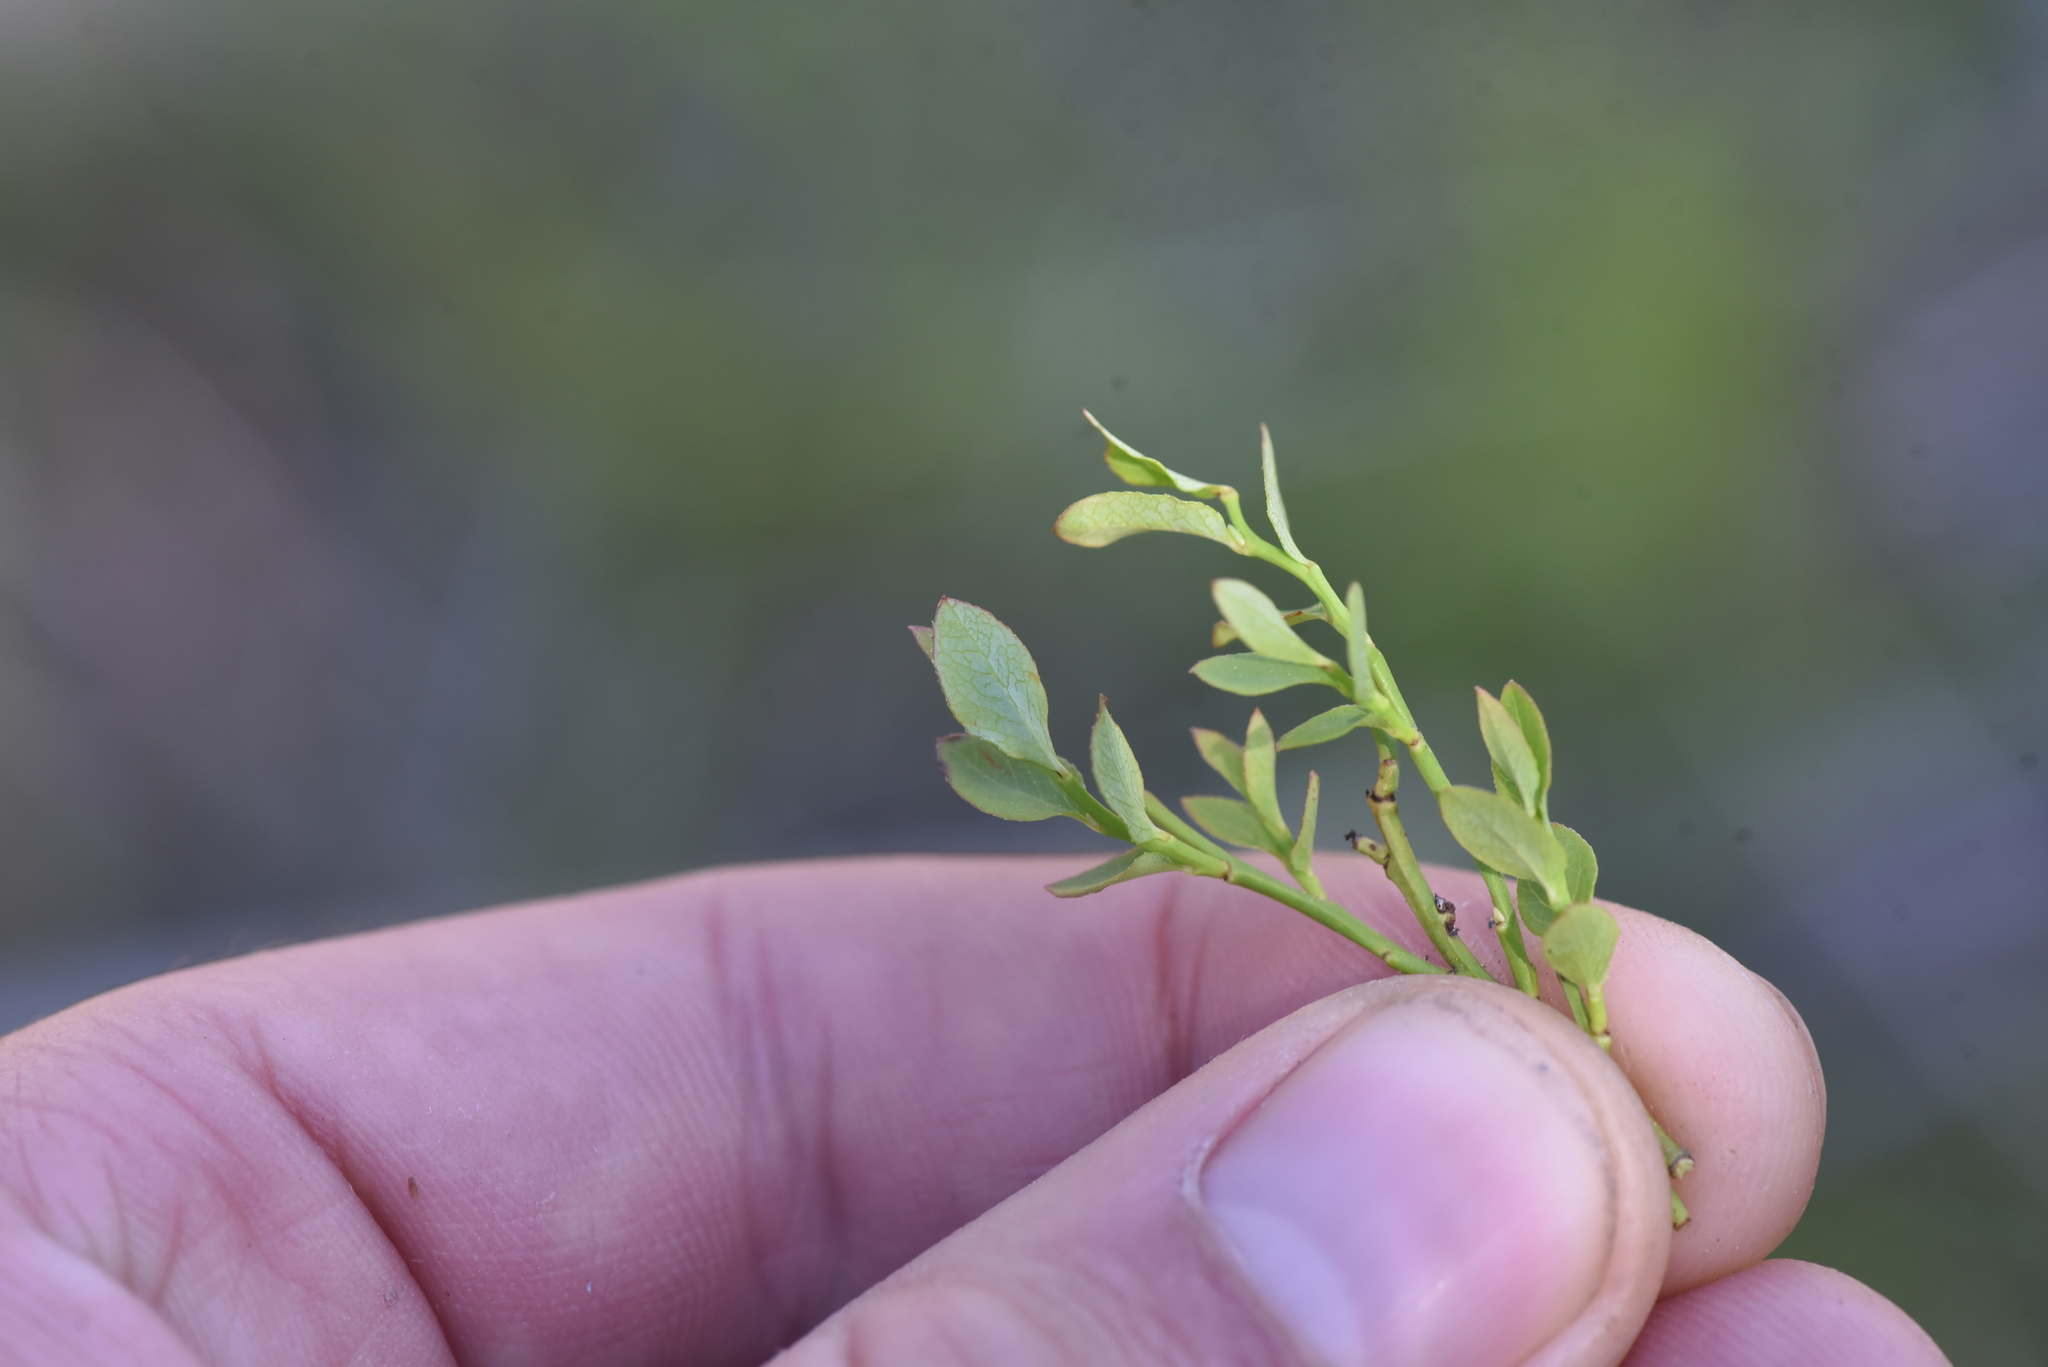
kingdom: Plantae
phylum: Tracheophyta
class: Magnoliopsida
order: Ericales
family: Ericaceae
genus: Vaccinium
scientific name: Vaccinium scoparium
